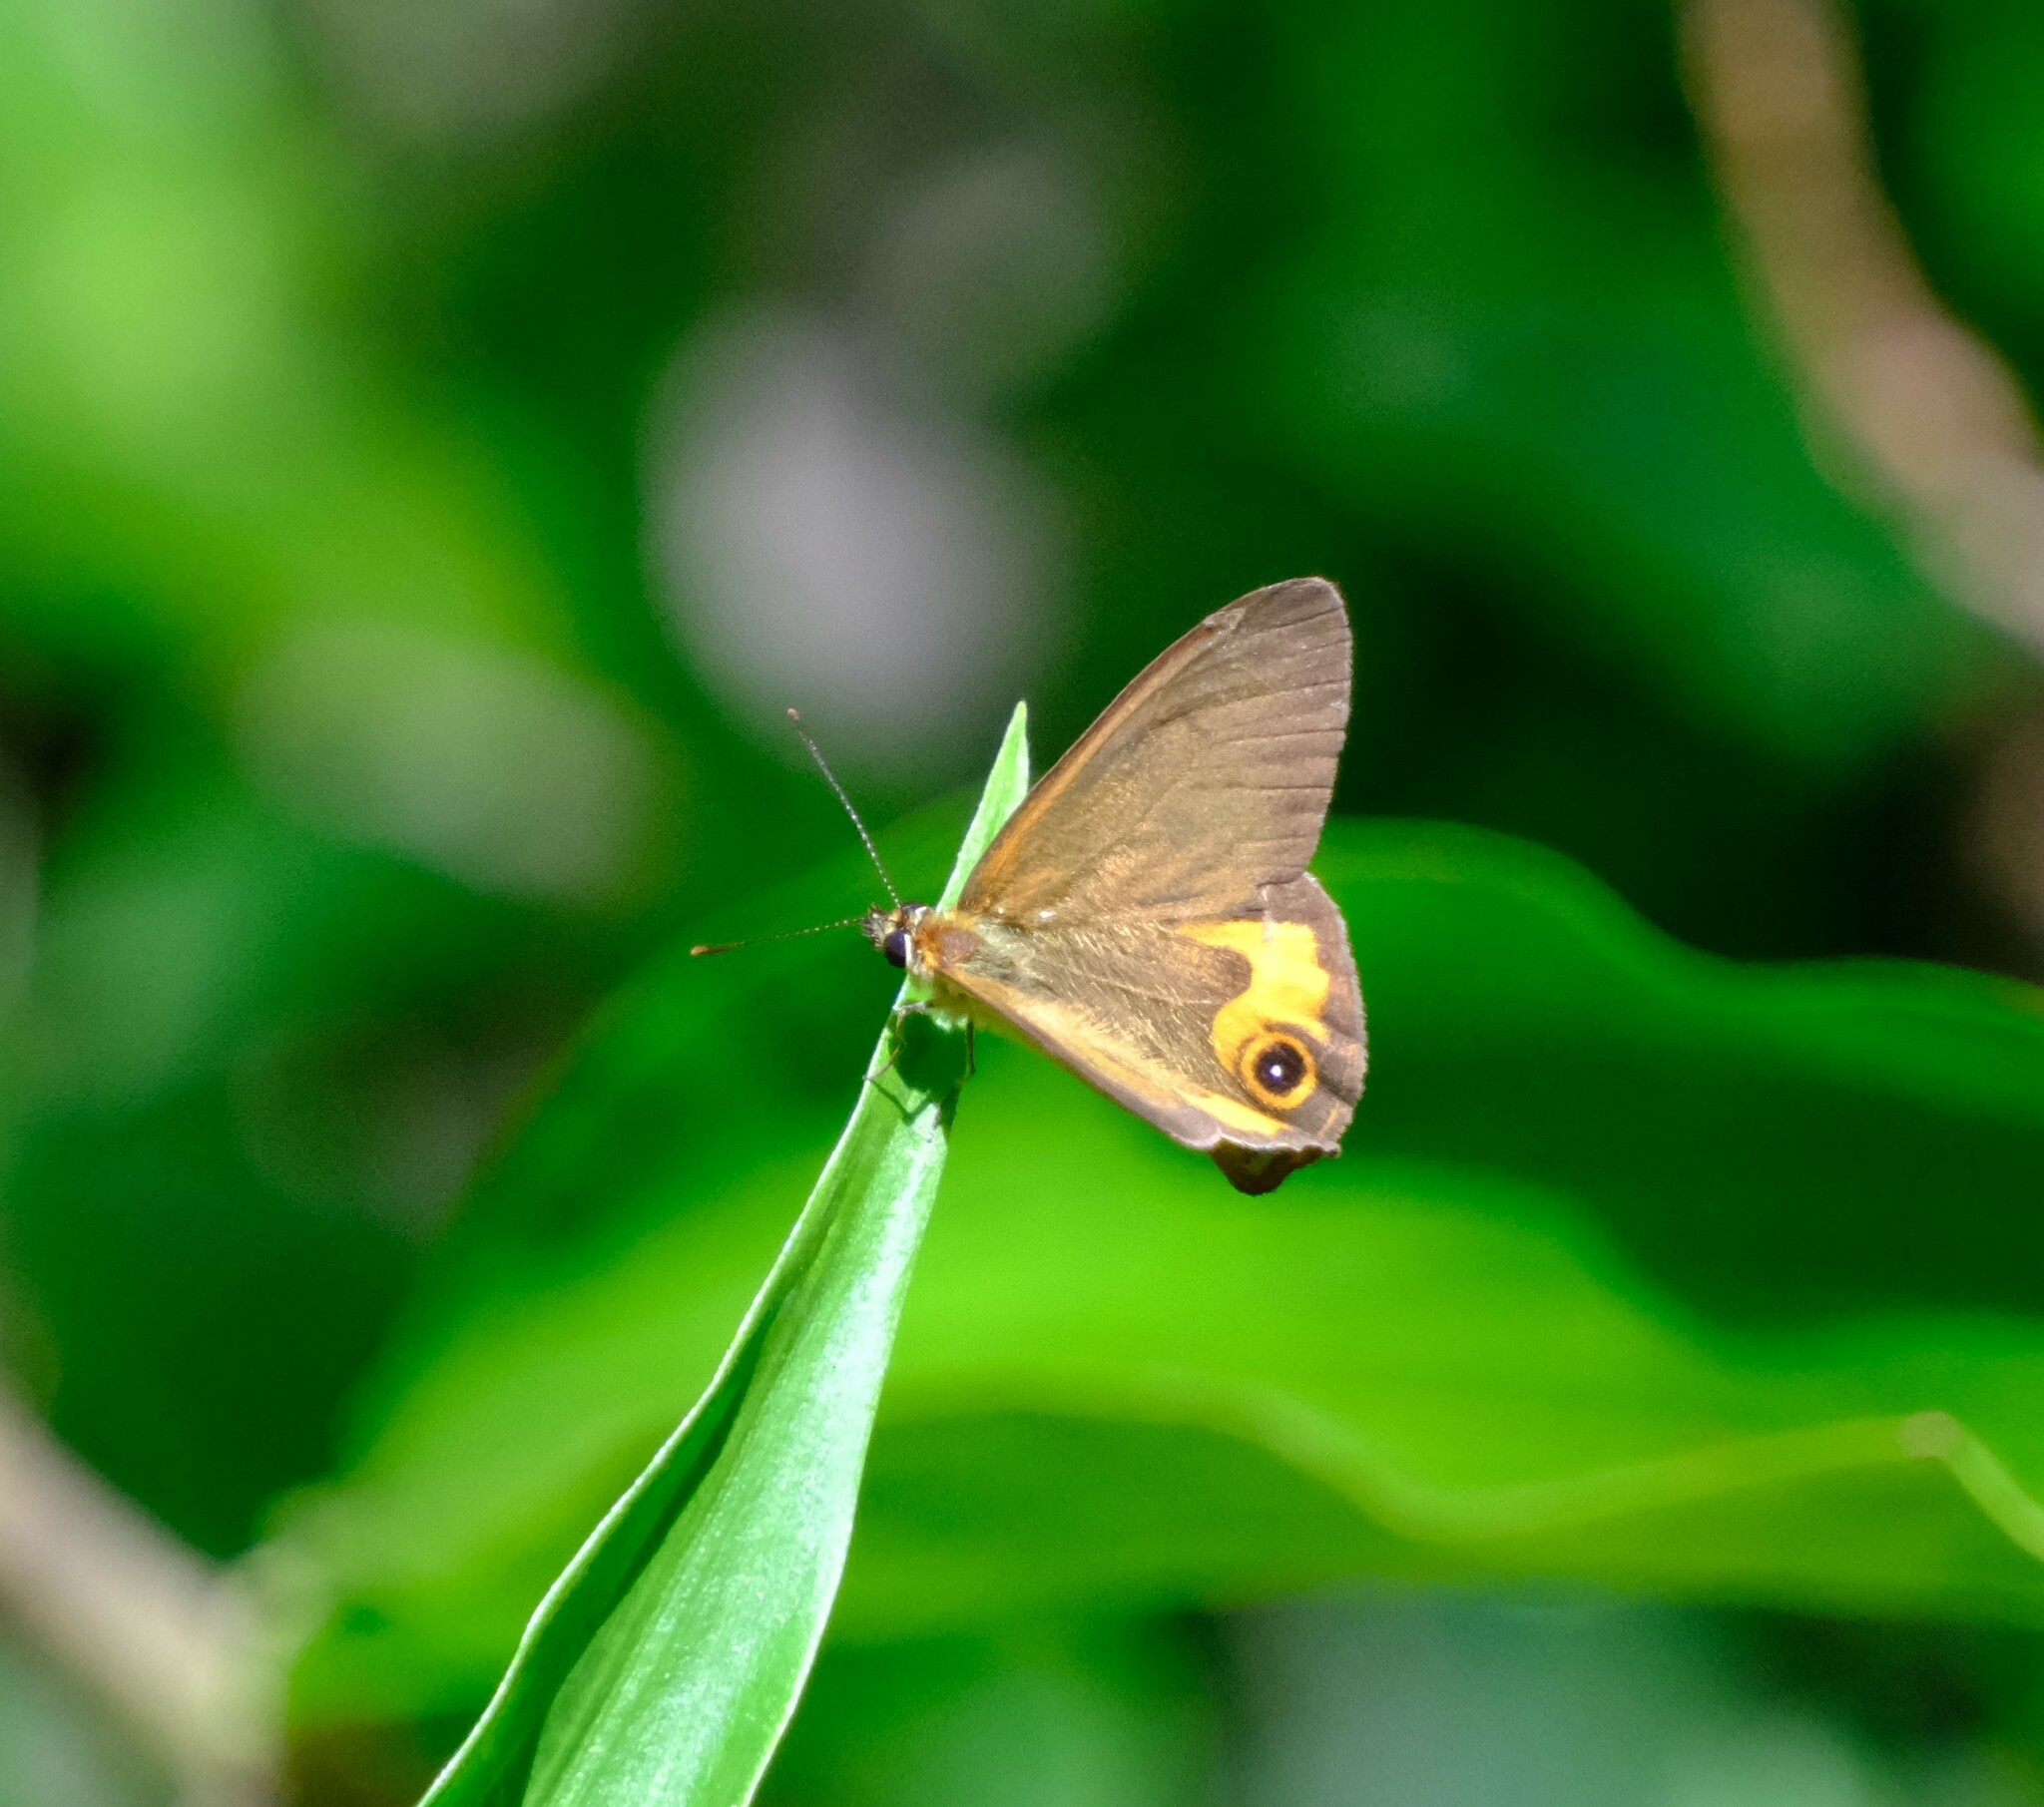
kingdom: Animalia
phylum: Arthropoda
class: Insecta
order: Lepidoptera
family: Nymphalidae
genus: Hypocysta
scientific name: Hypocysta metirius
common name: Brown ringlet
